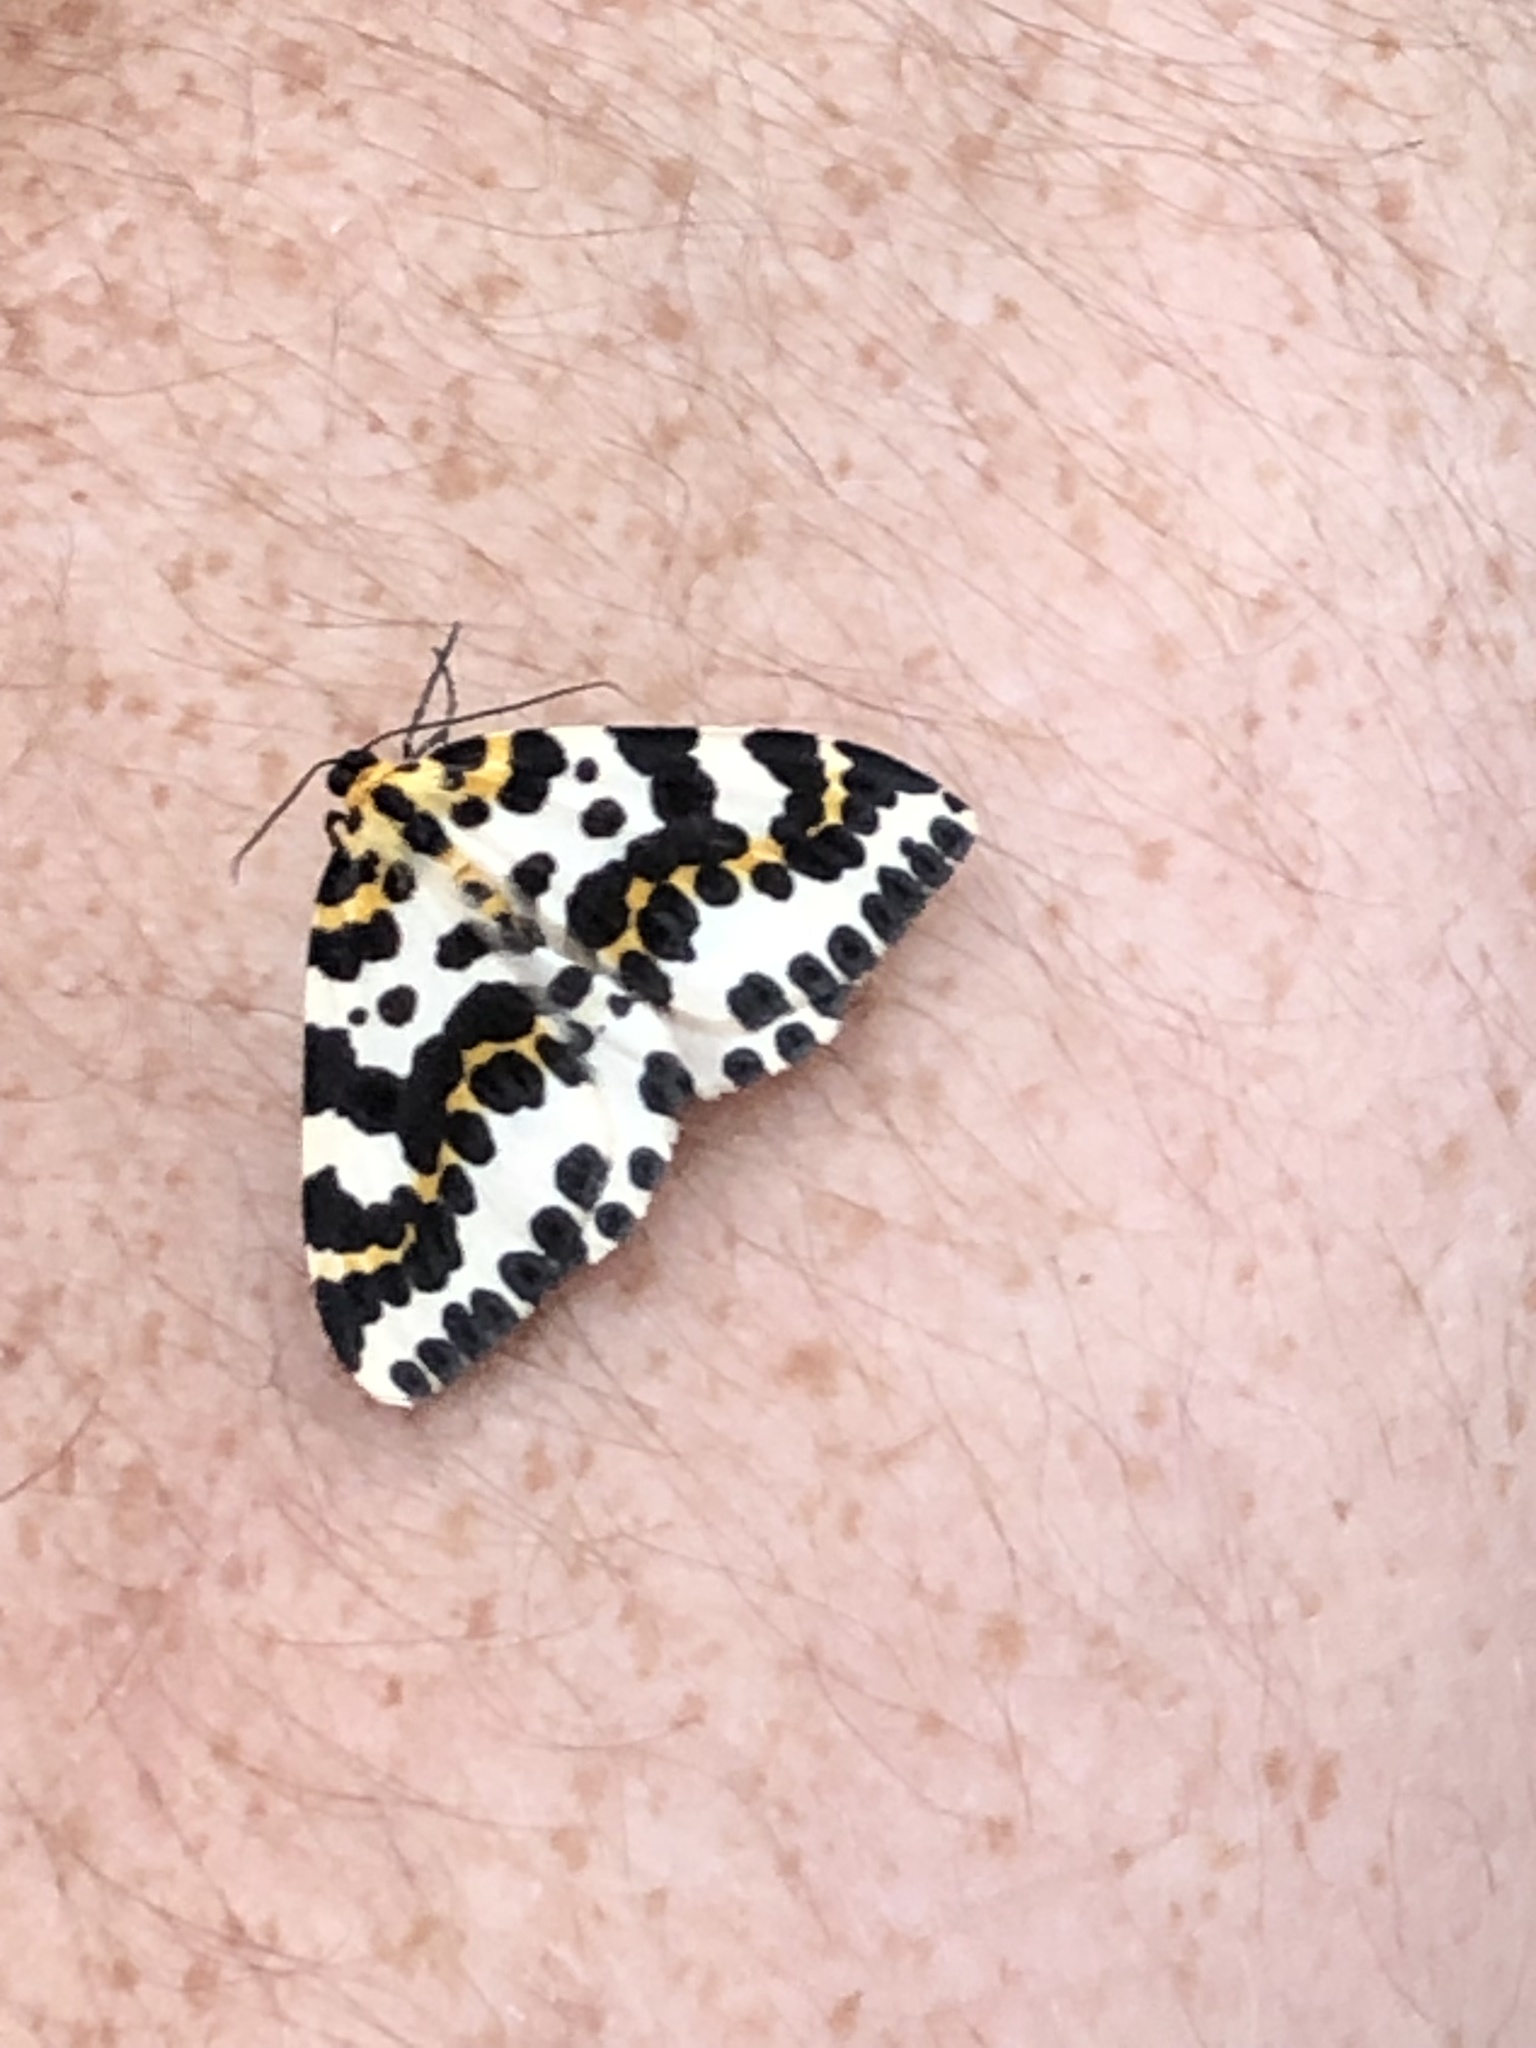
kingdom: Animalia
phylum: Arthropoda
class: Insecta
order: Lepidoptera
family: Geometridae
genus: Abraxas
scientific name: Abraxas grossulariata
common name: Magpie
